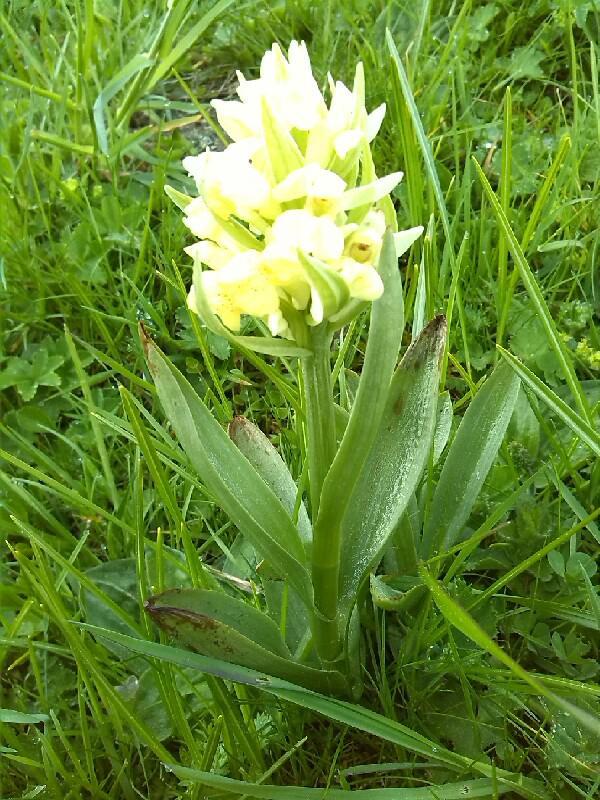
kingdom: Plantae
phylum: Tracheophyta
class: Liliopsida
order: Asparagales
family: Orchidaceae
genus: Dactylorhiza
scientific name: Dactylorhiza sambucina
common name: Elder-flowered orchid
